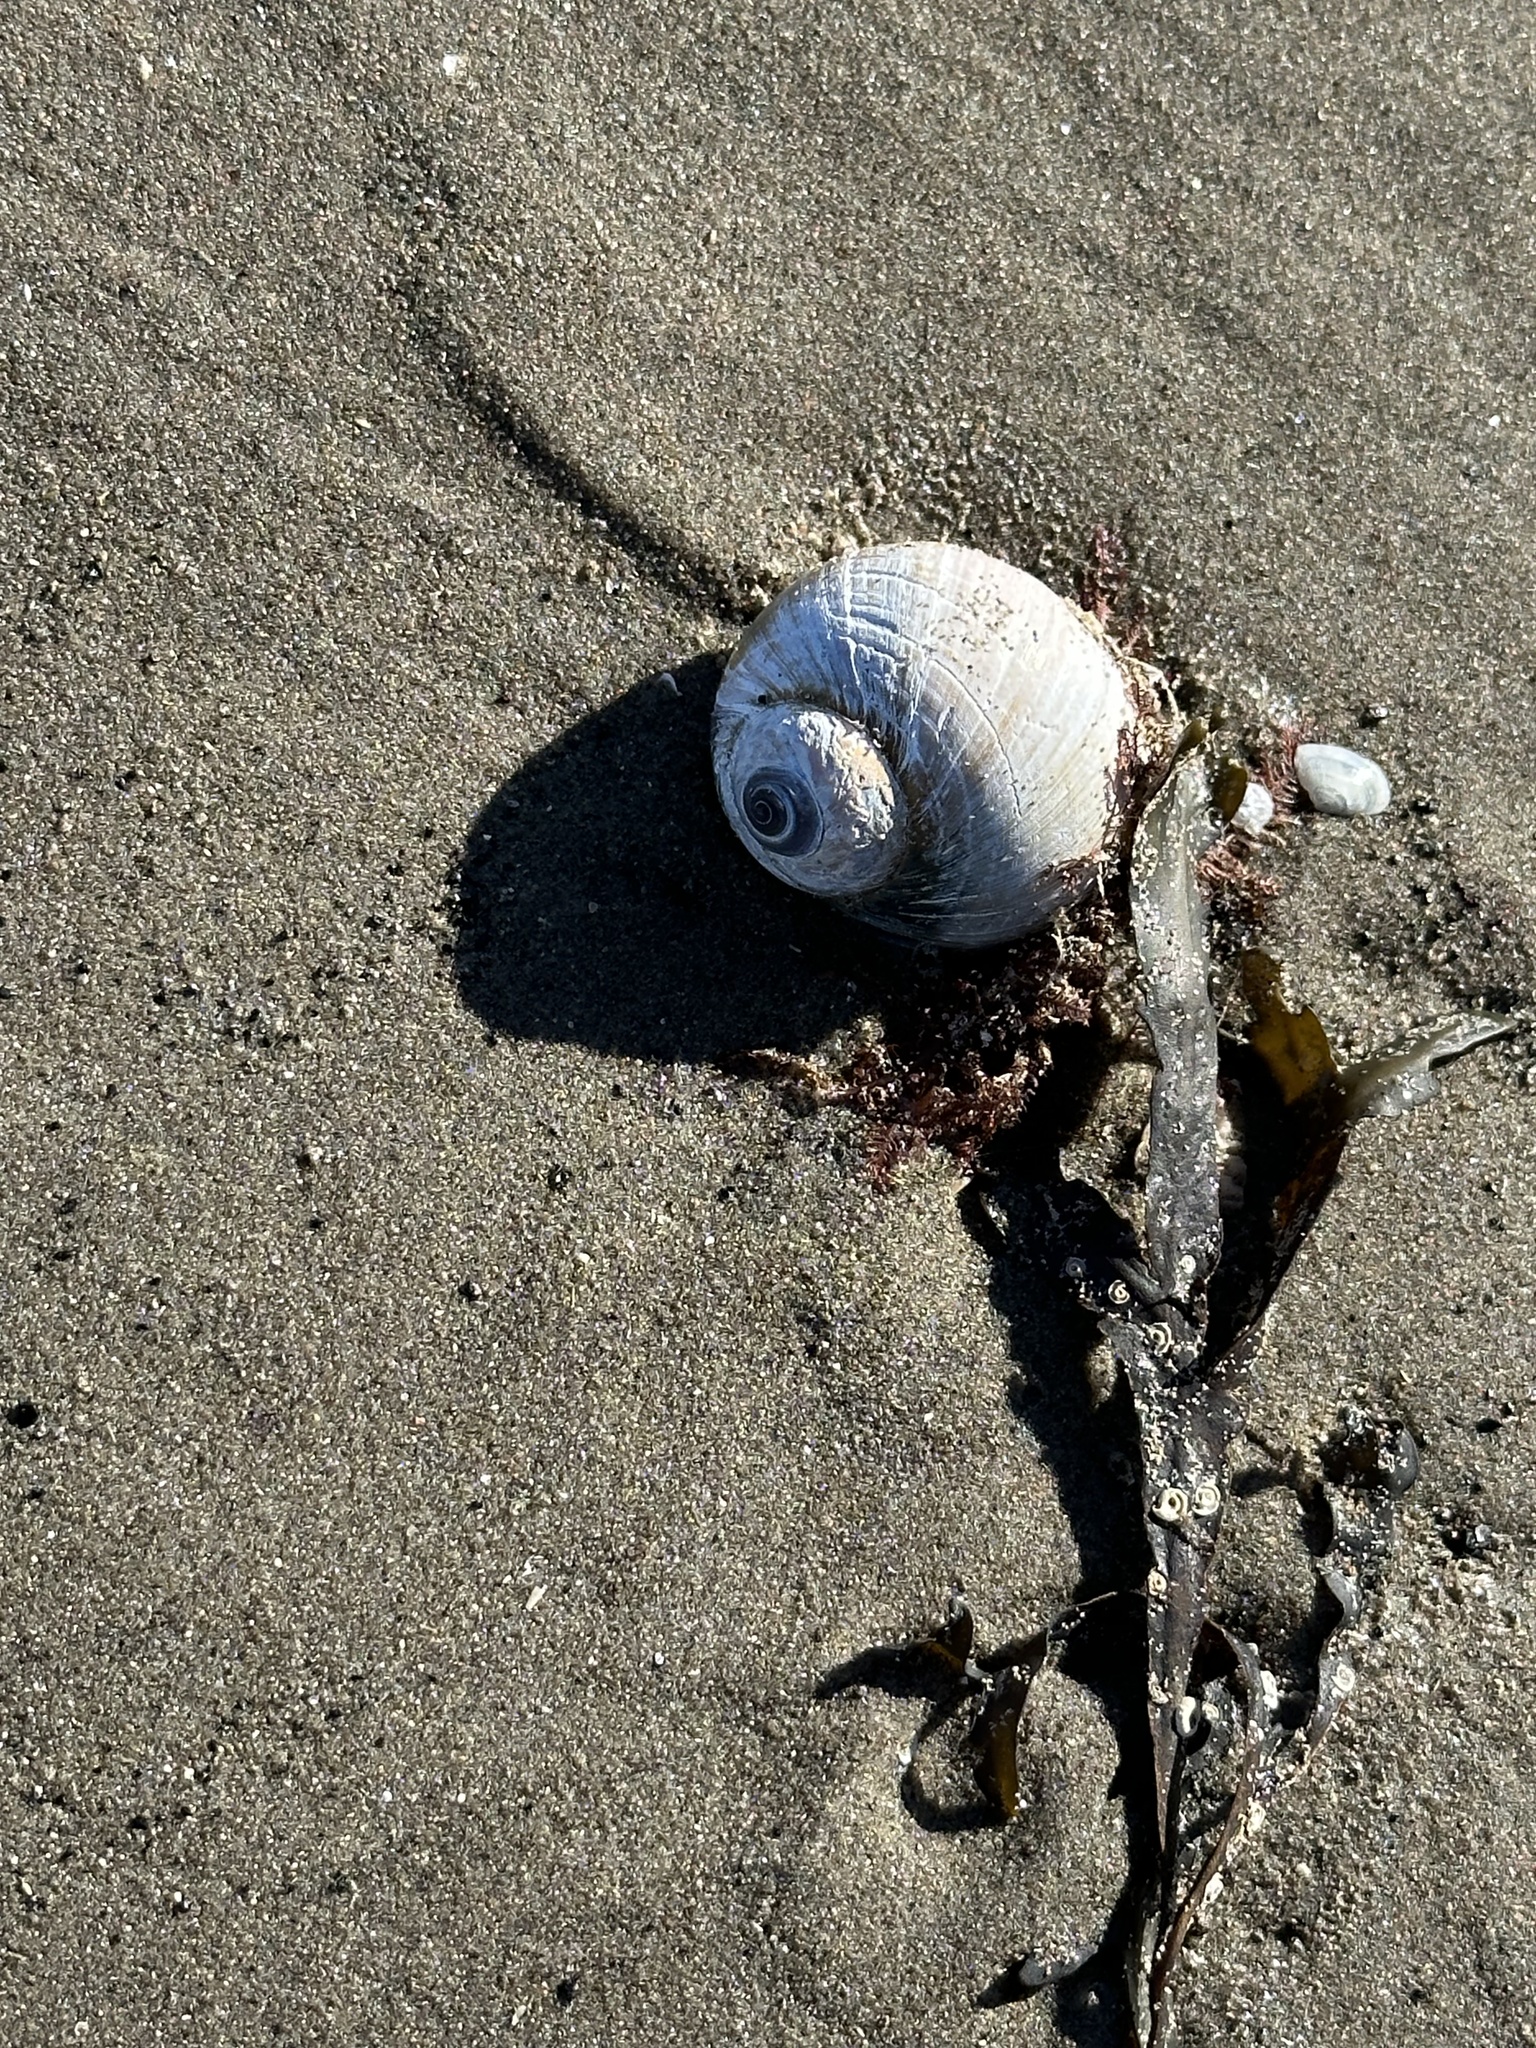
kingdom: Animalia
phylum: Mollusca
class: Gastropoda
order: Littorinimorpha
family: Naticidae
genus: Euspira
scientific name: Euspira heros
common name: Common northern moonsnail
